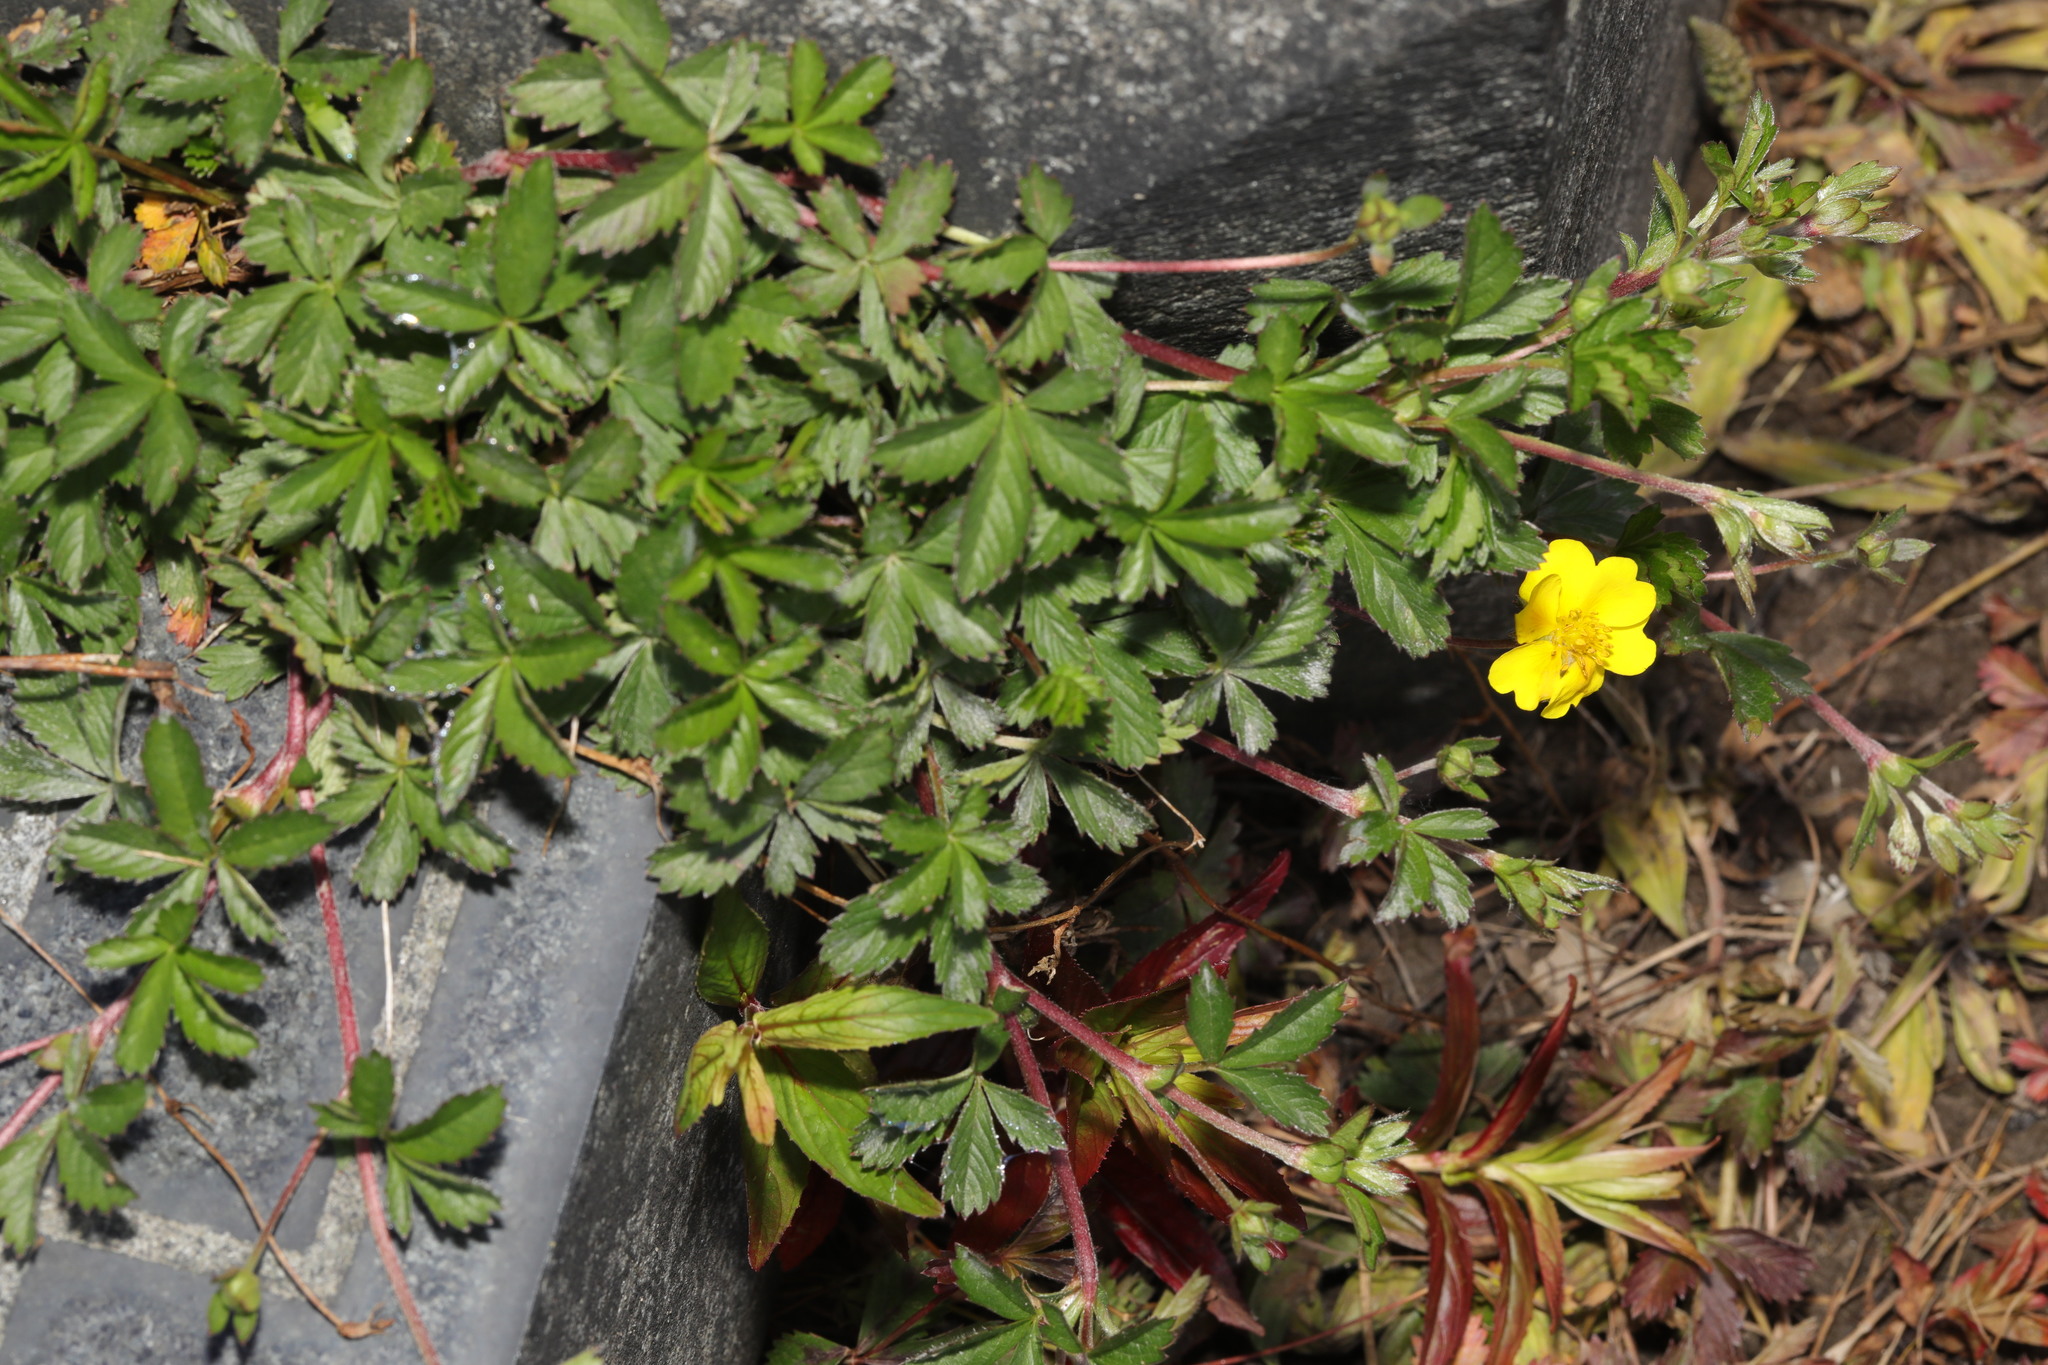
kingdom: Plantae
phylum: Tracheophyta
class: Magnoliopsida
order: Rosales
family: Rosaceae
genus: Potentilla
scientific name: Potentilla reptans
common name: Creeping cinquefoil
